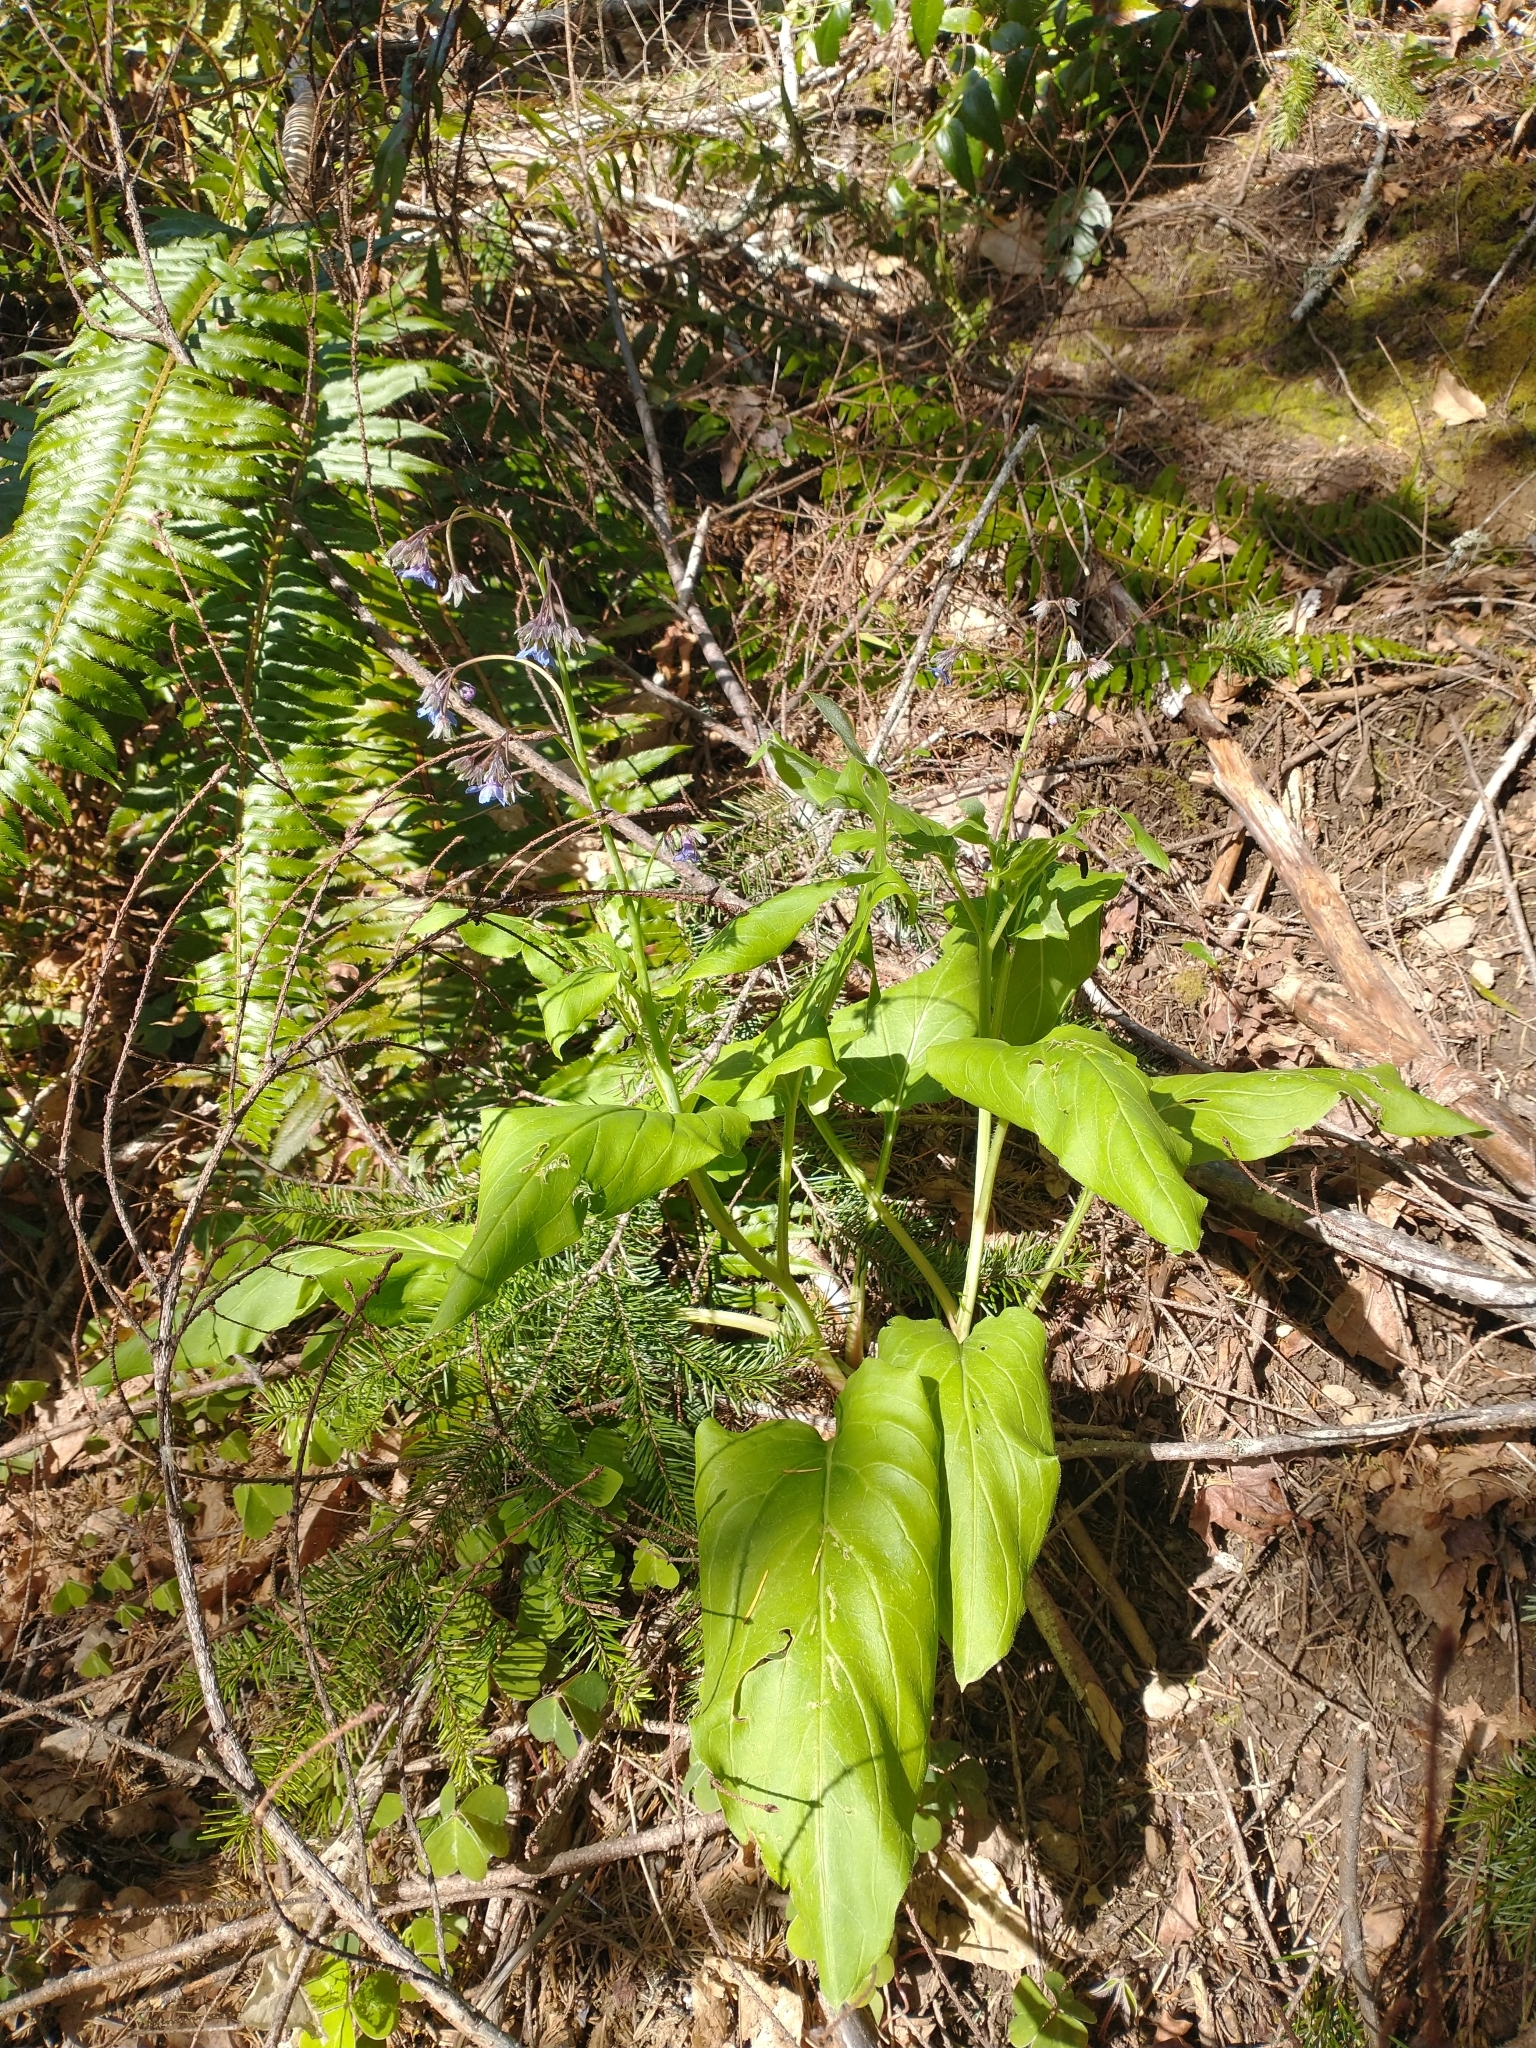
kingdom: Plantae
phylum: Tracheophyta
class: Magnoliopsida
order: Boraginales
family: Boraginaceae
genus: Adelinia
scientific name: Adelinia grande
